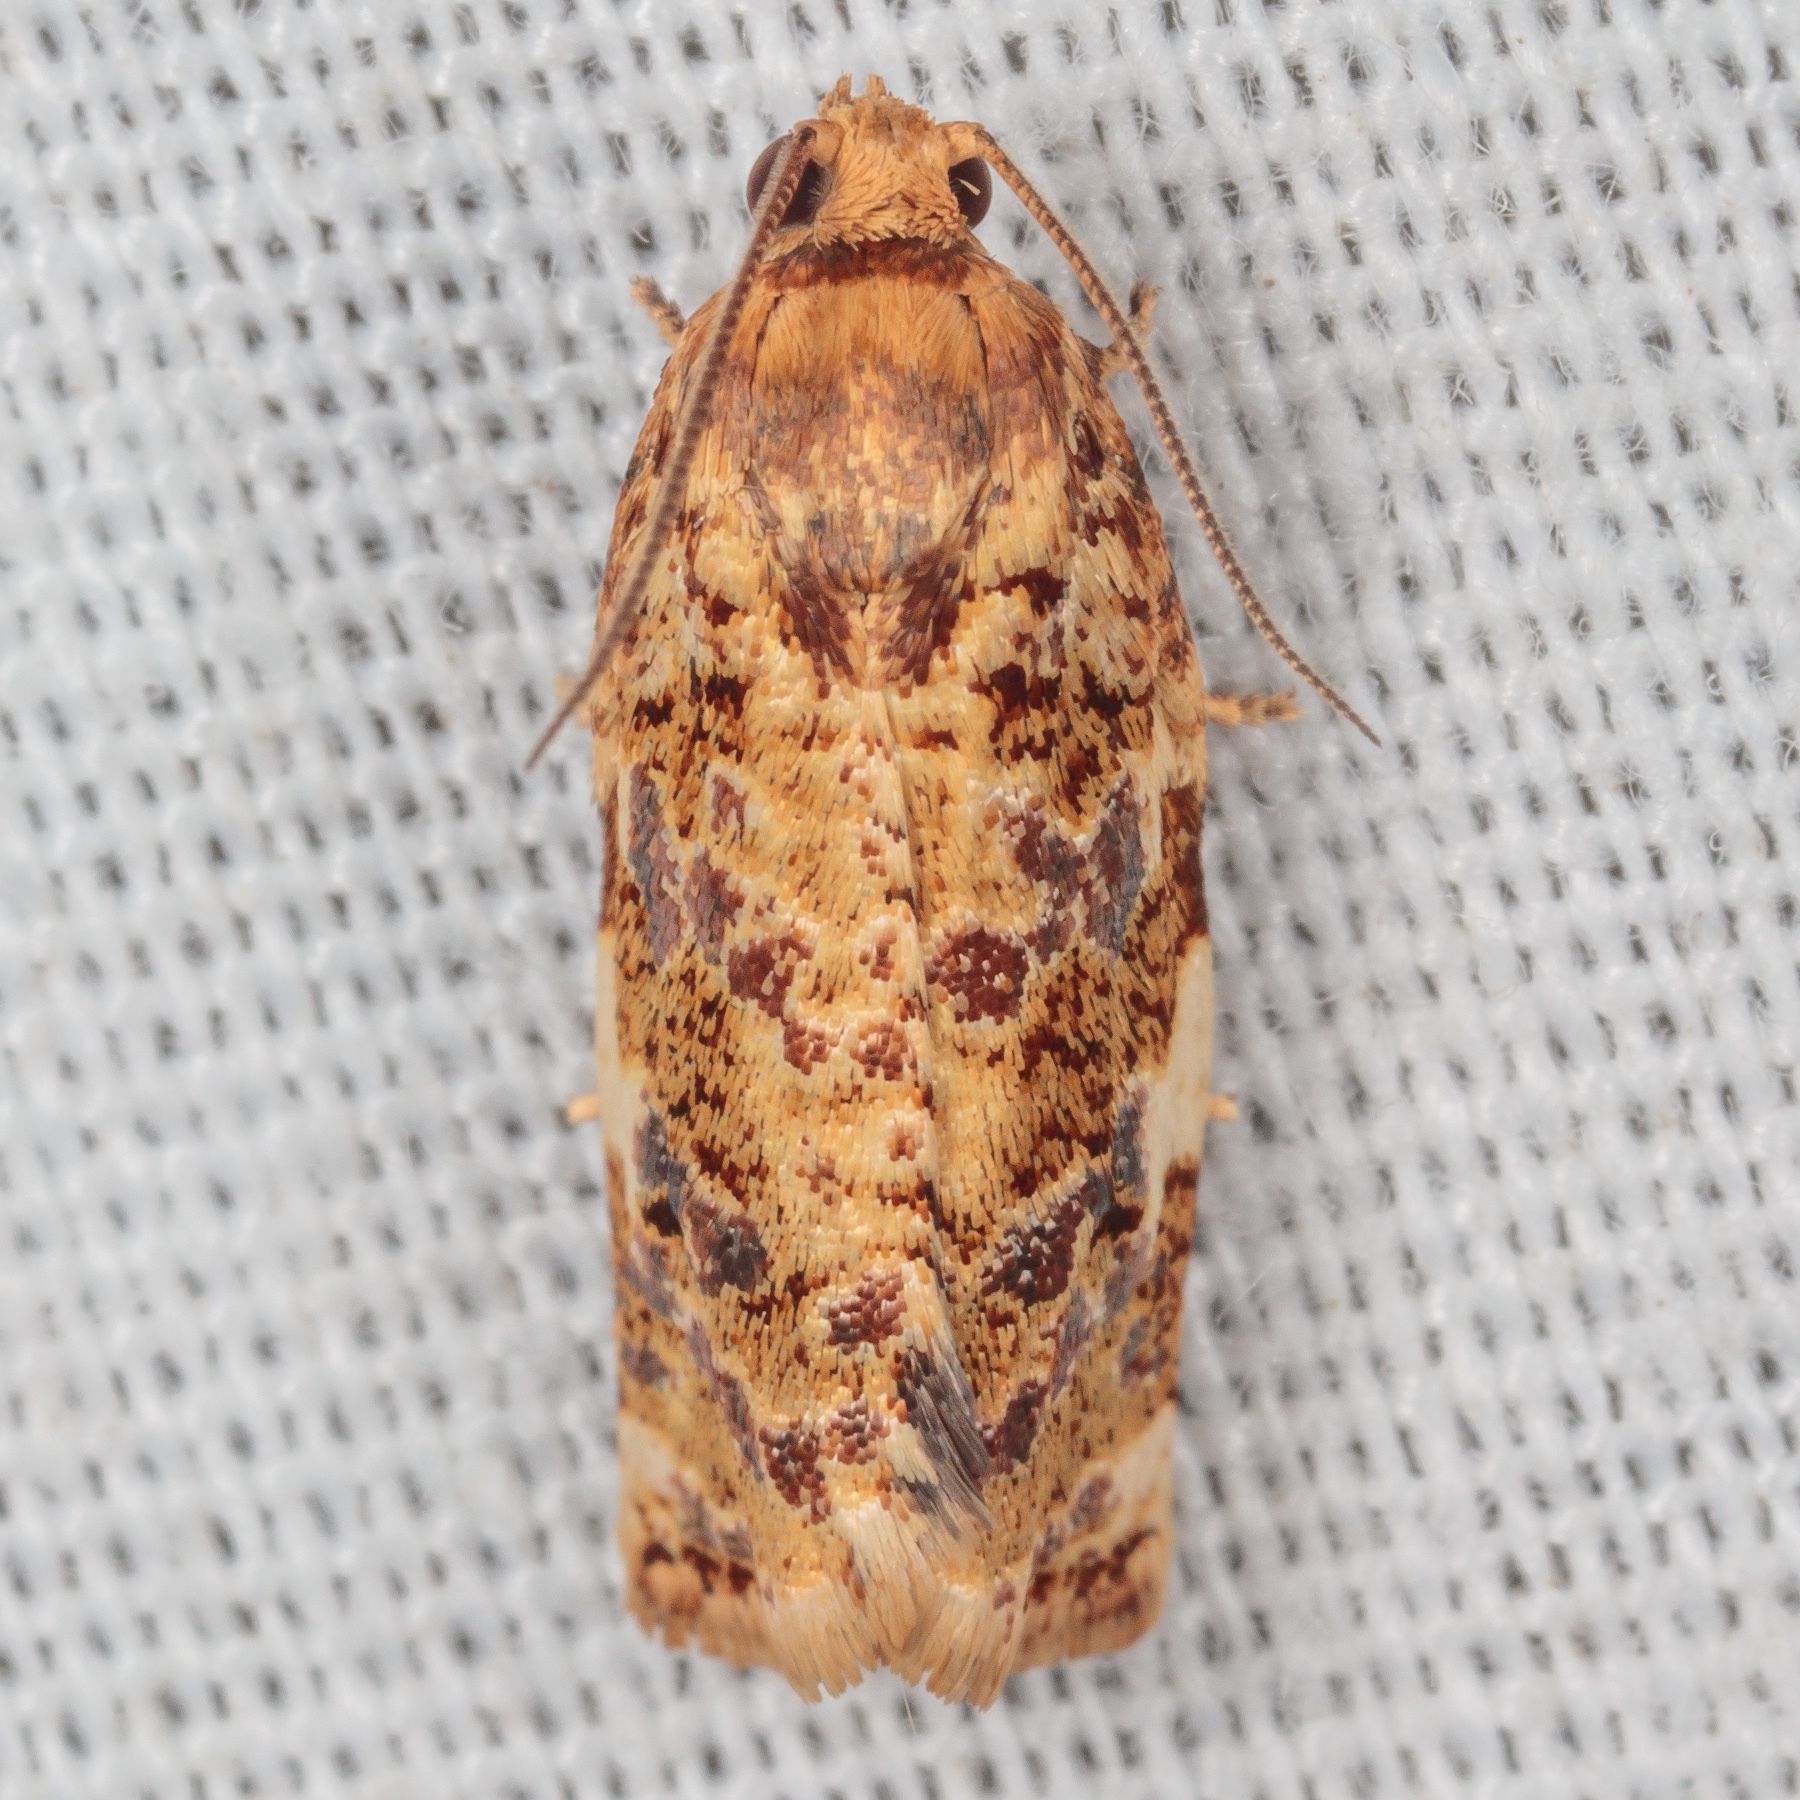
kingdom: Animalia
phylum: Arthropoda
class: Insecta
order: Lepidoptera
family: Tortricidae
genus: Archips
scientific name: Archips argyrospila
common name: Fruit-tree leafroller moth
